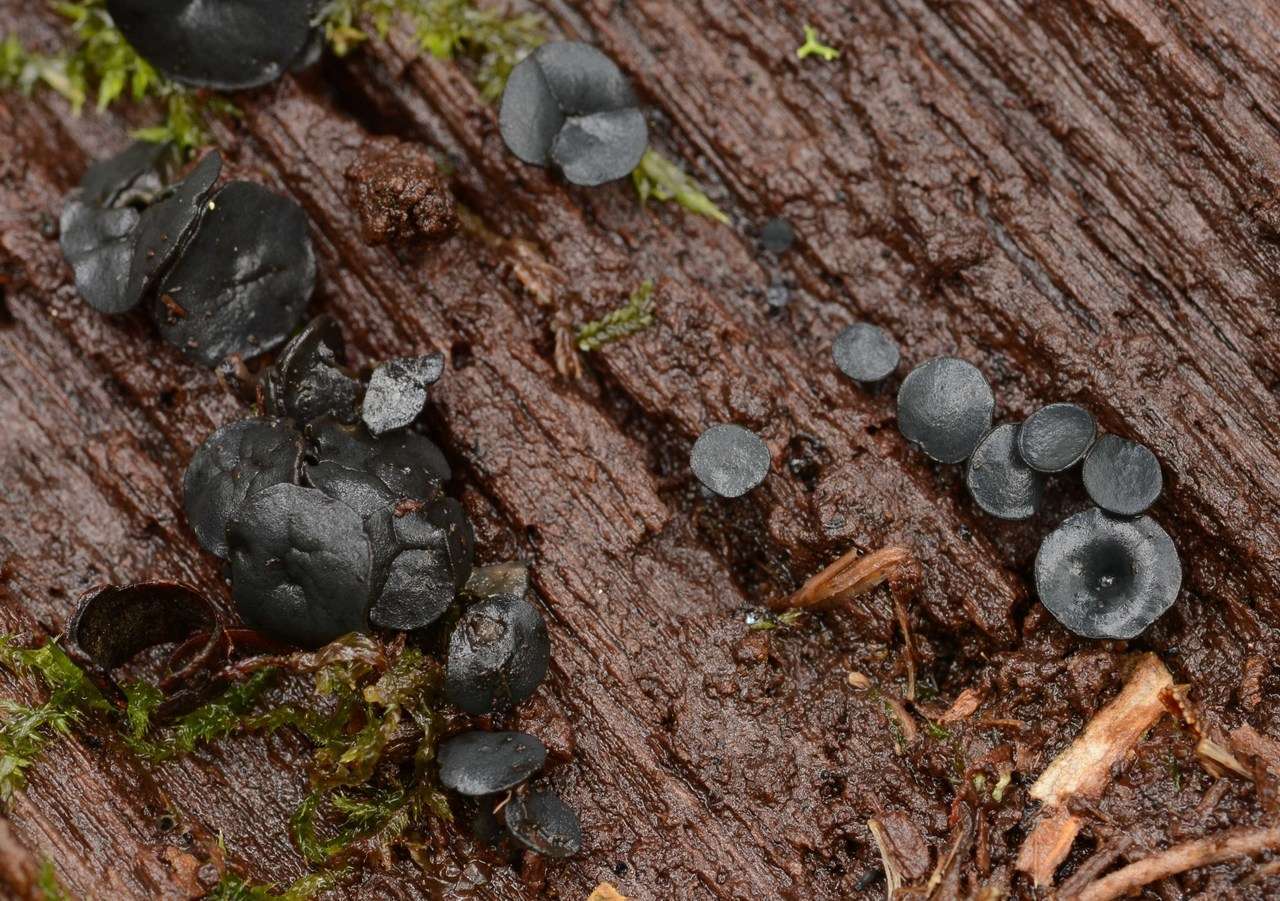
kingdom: Fungi
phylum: Ascomycota
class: Leotiomycetes
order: Helotiales
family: Rutstroemiaceae
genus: Lanzia
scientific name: Lanzia lanaripes
